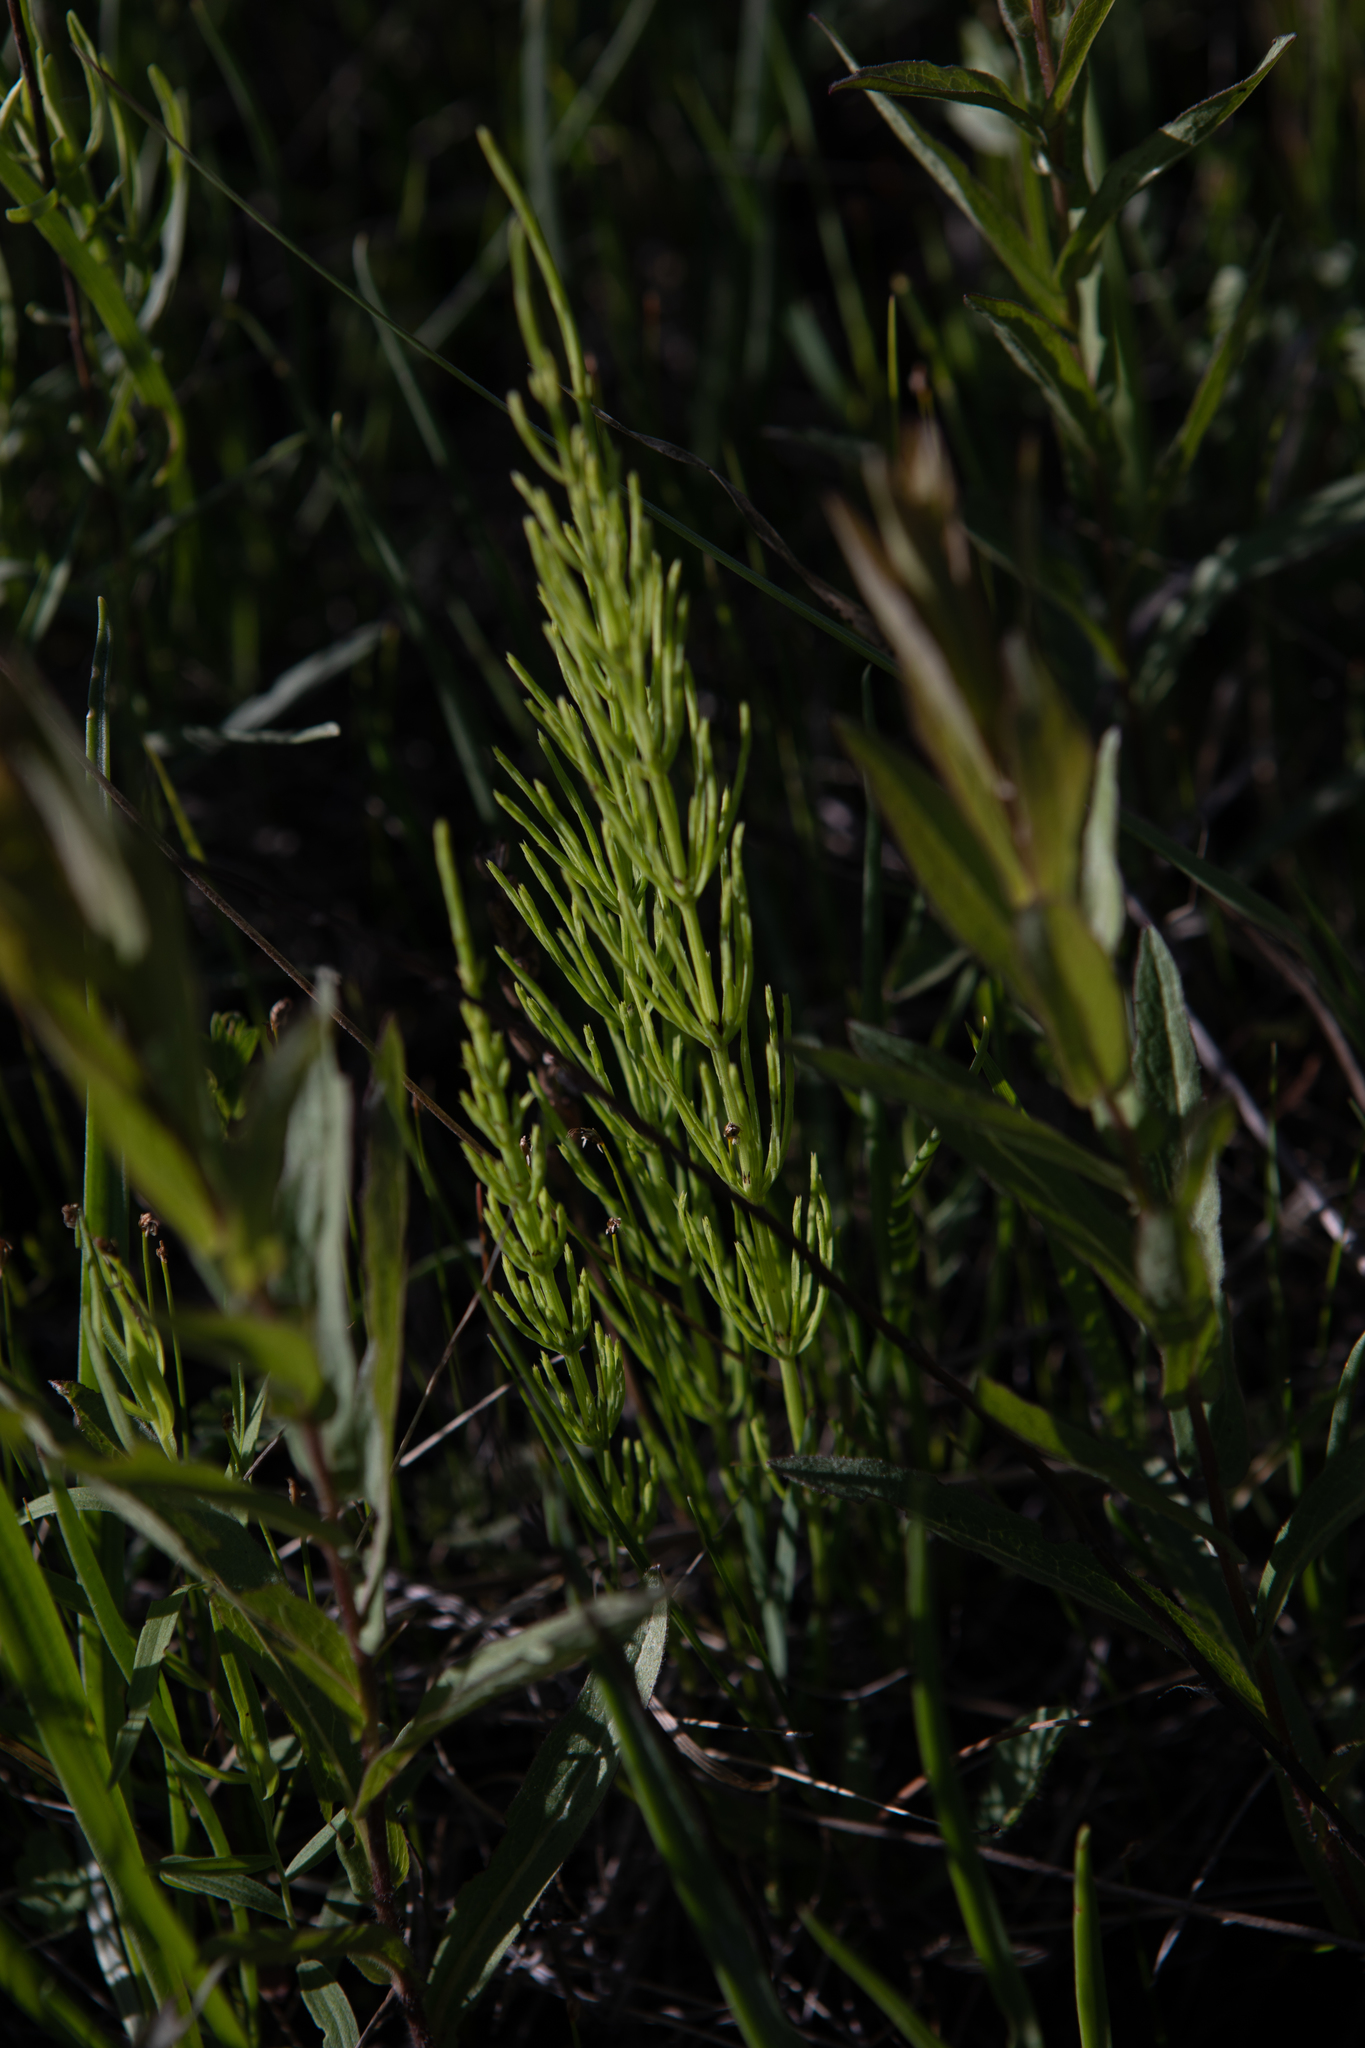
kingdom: Plantae
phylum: Tracheophyta
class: Polypodiopsida
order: Equisetales
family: Equisetaceae
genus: Equisetum
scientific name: Equisetum arvense
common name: Field horsetail
